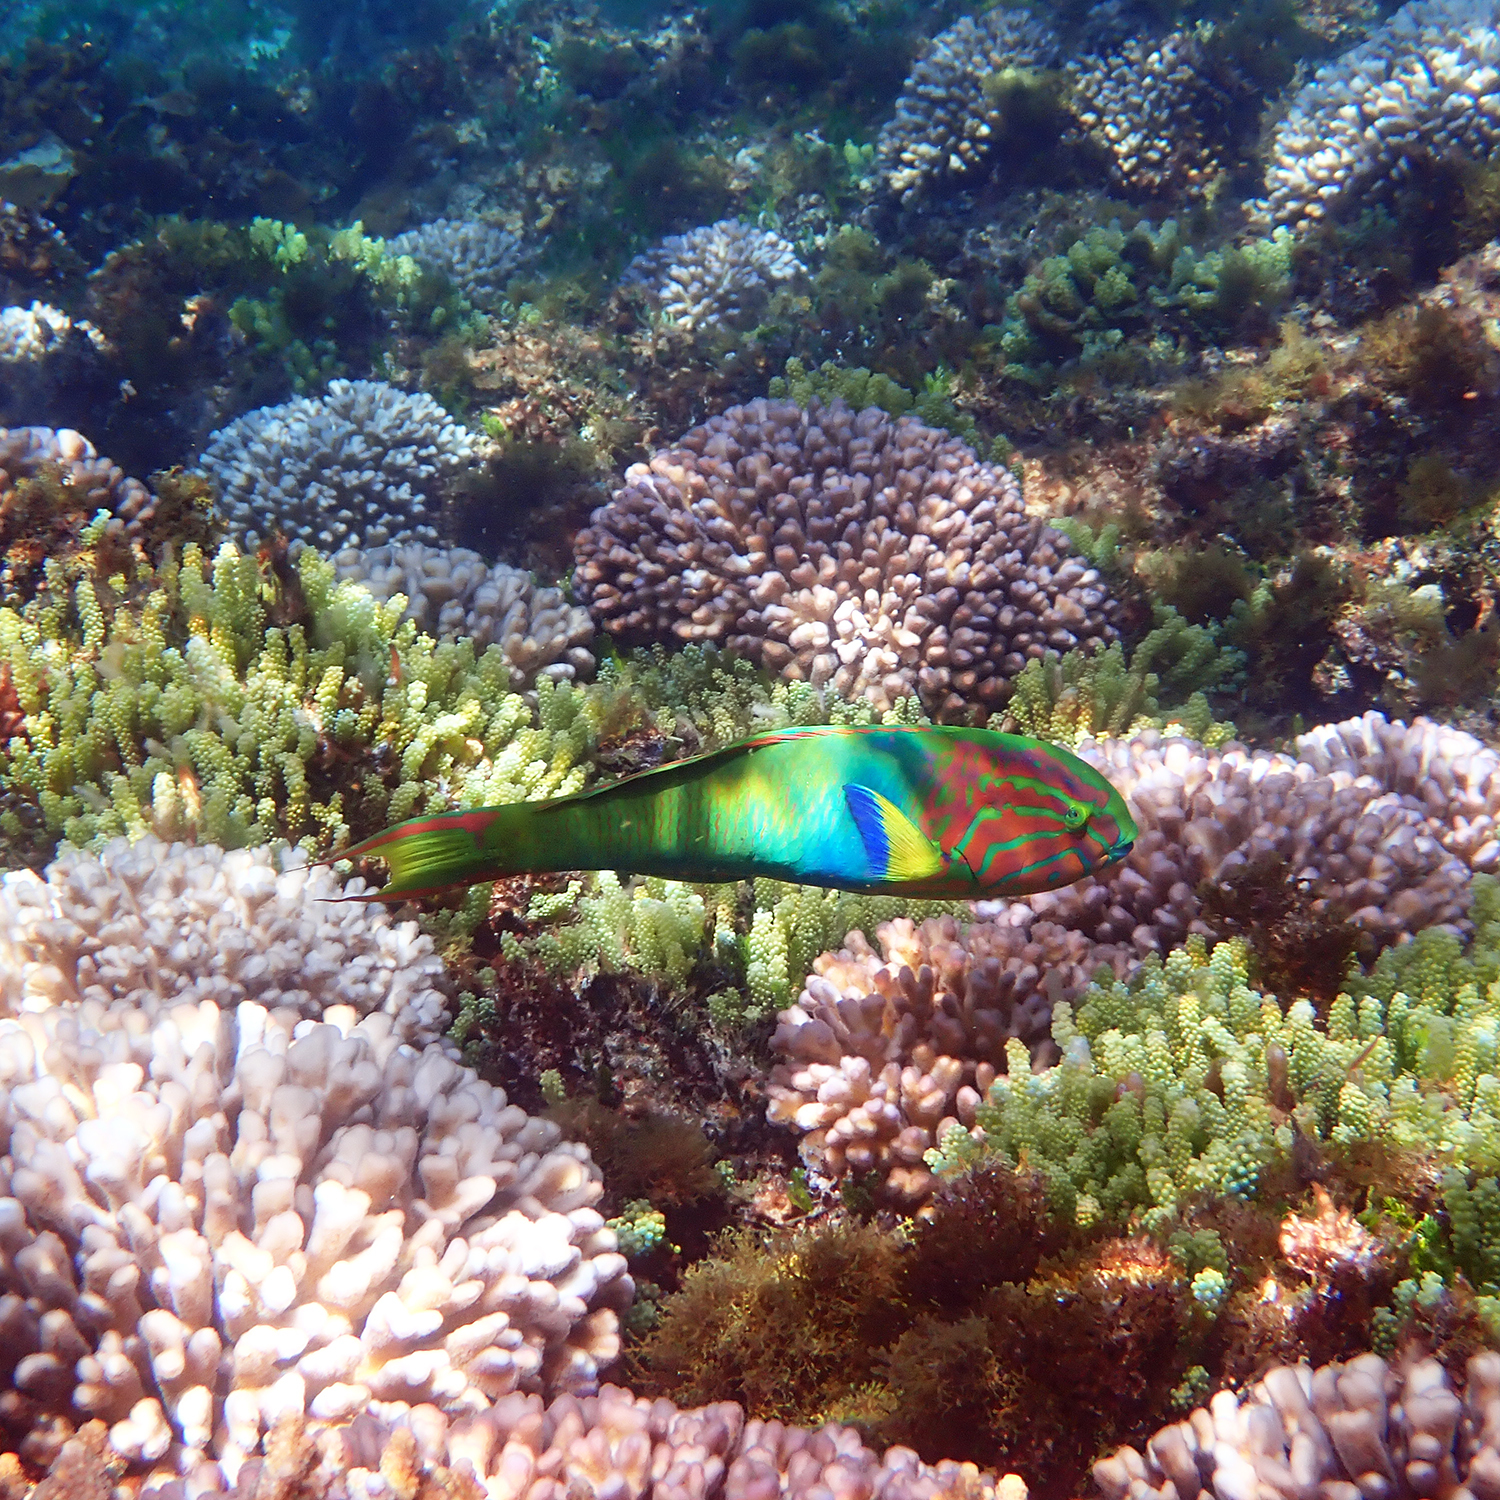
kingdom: Animalia
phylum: Chordata
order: Perciformes
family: Labridae
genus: Thalassoma
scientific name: Thalassoma lutescens
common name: Green moon wrasse
